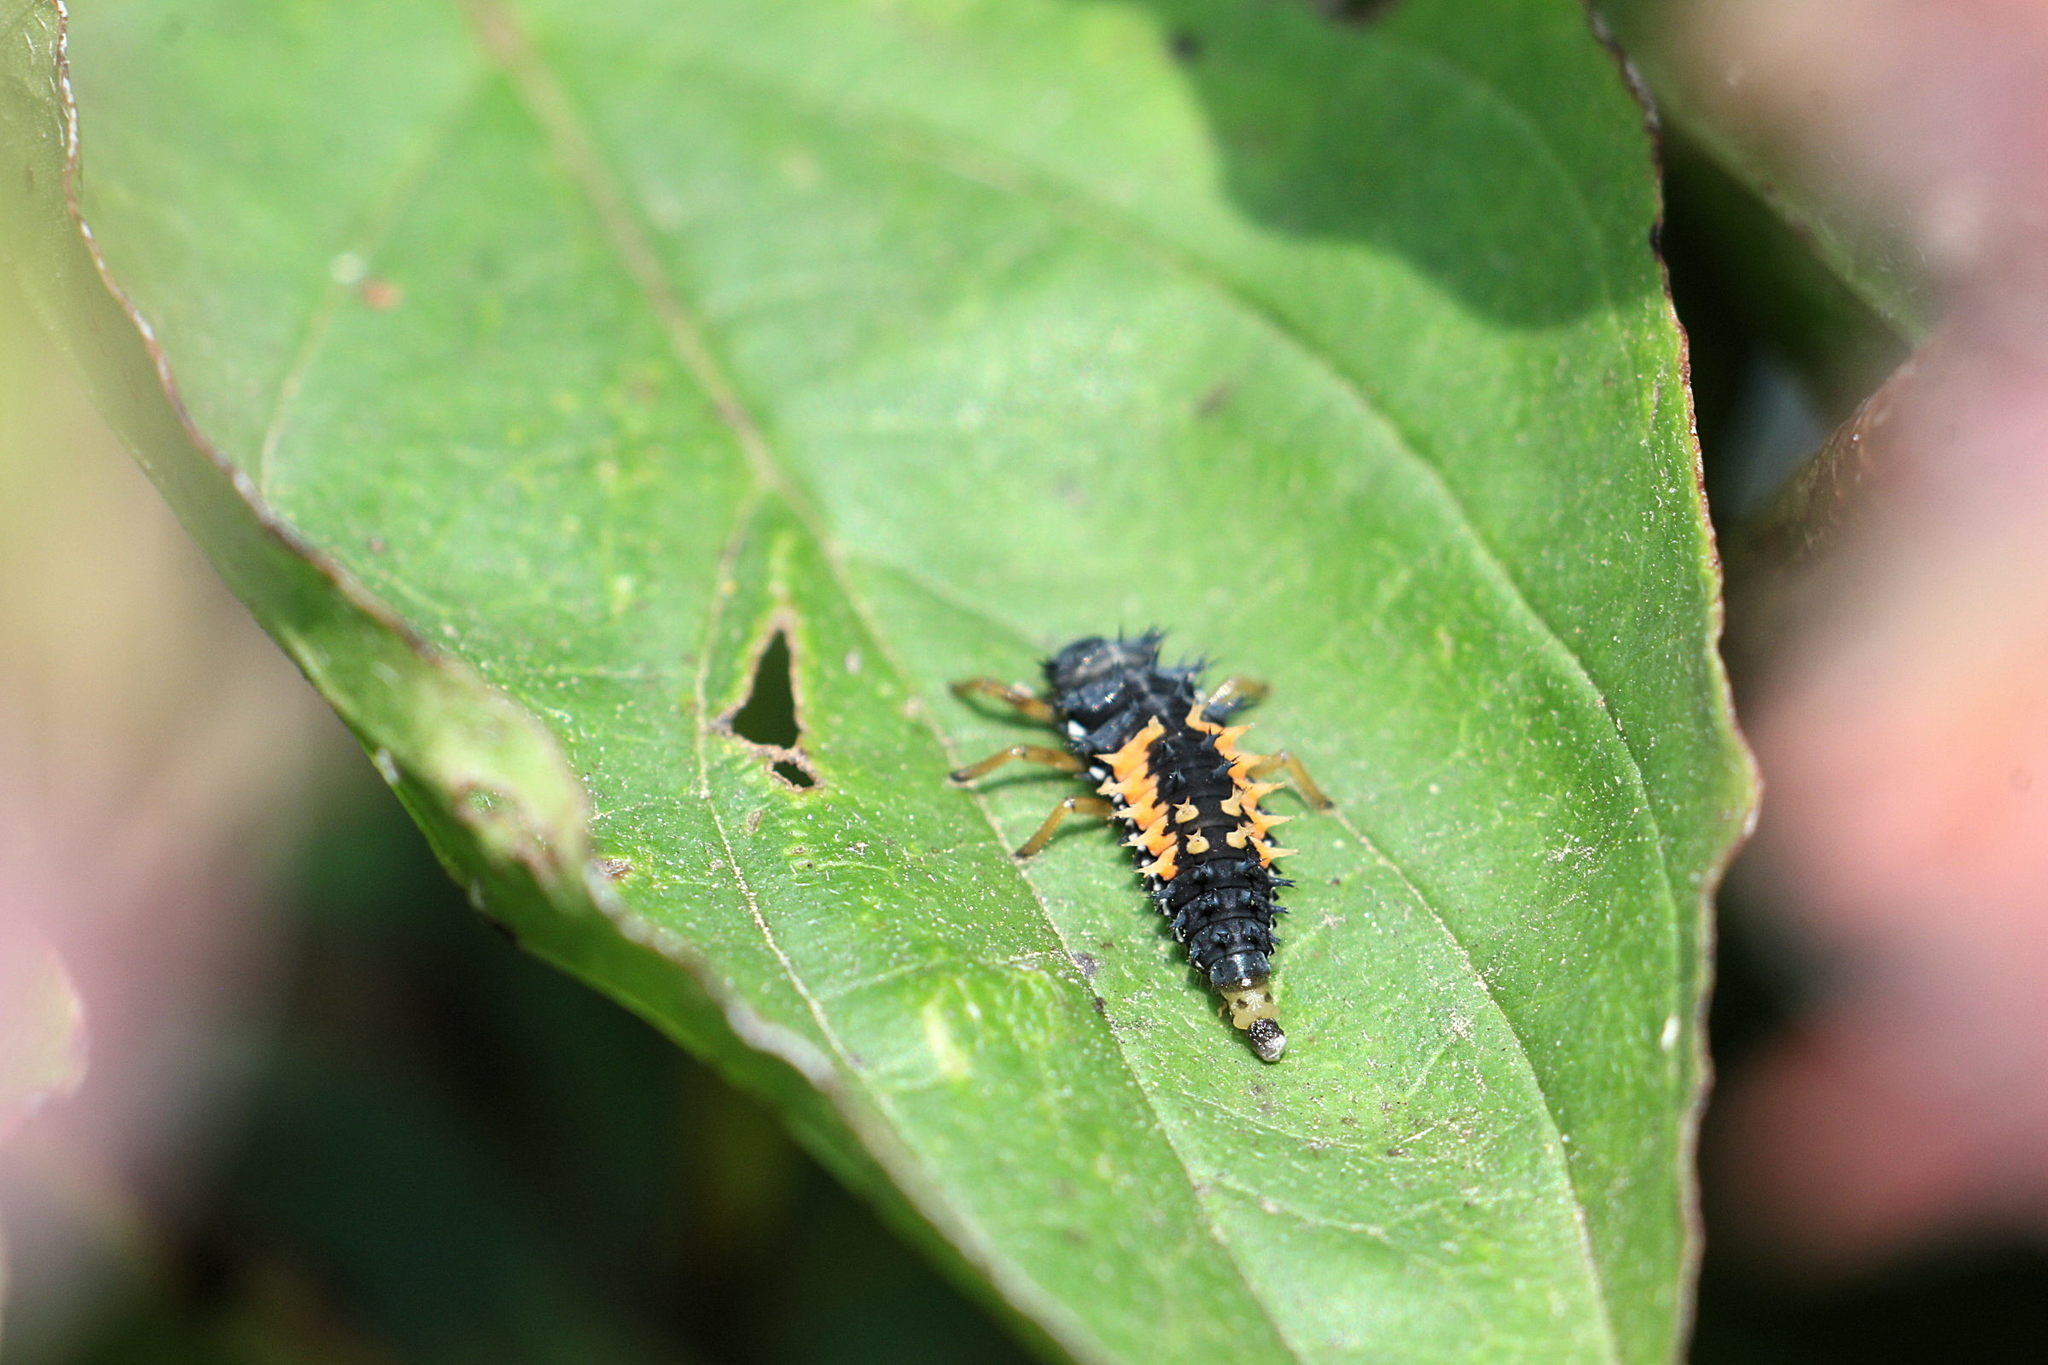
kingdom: Animalia
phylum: Arthropoda
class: Insecta
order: Coleoptera
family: Coccinellidae
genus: Harmonia
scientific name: Harmonia axyridis
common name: Harlequin ladybird
